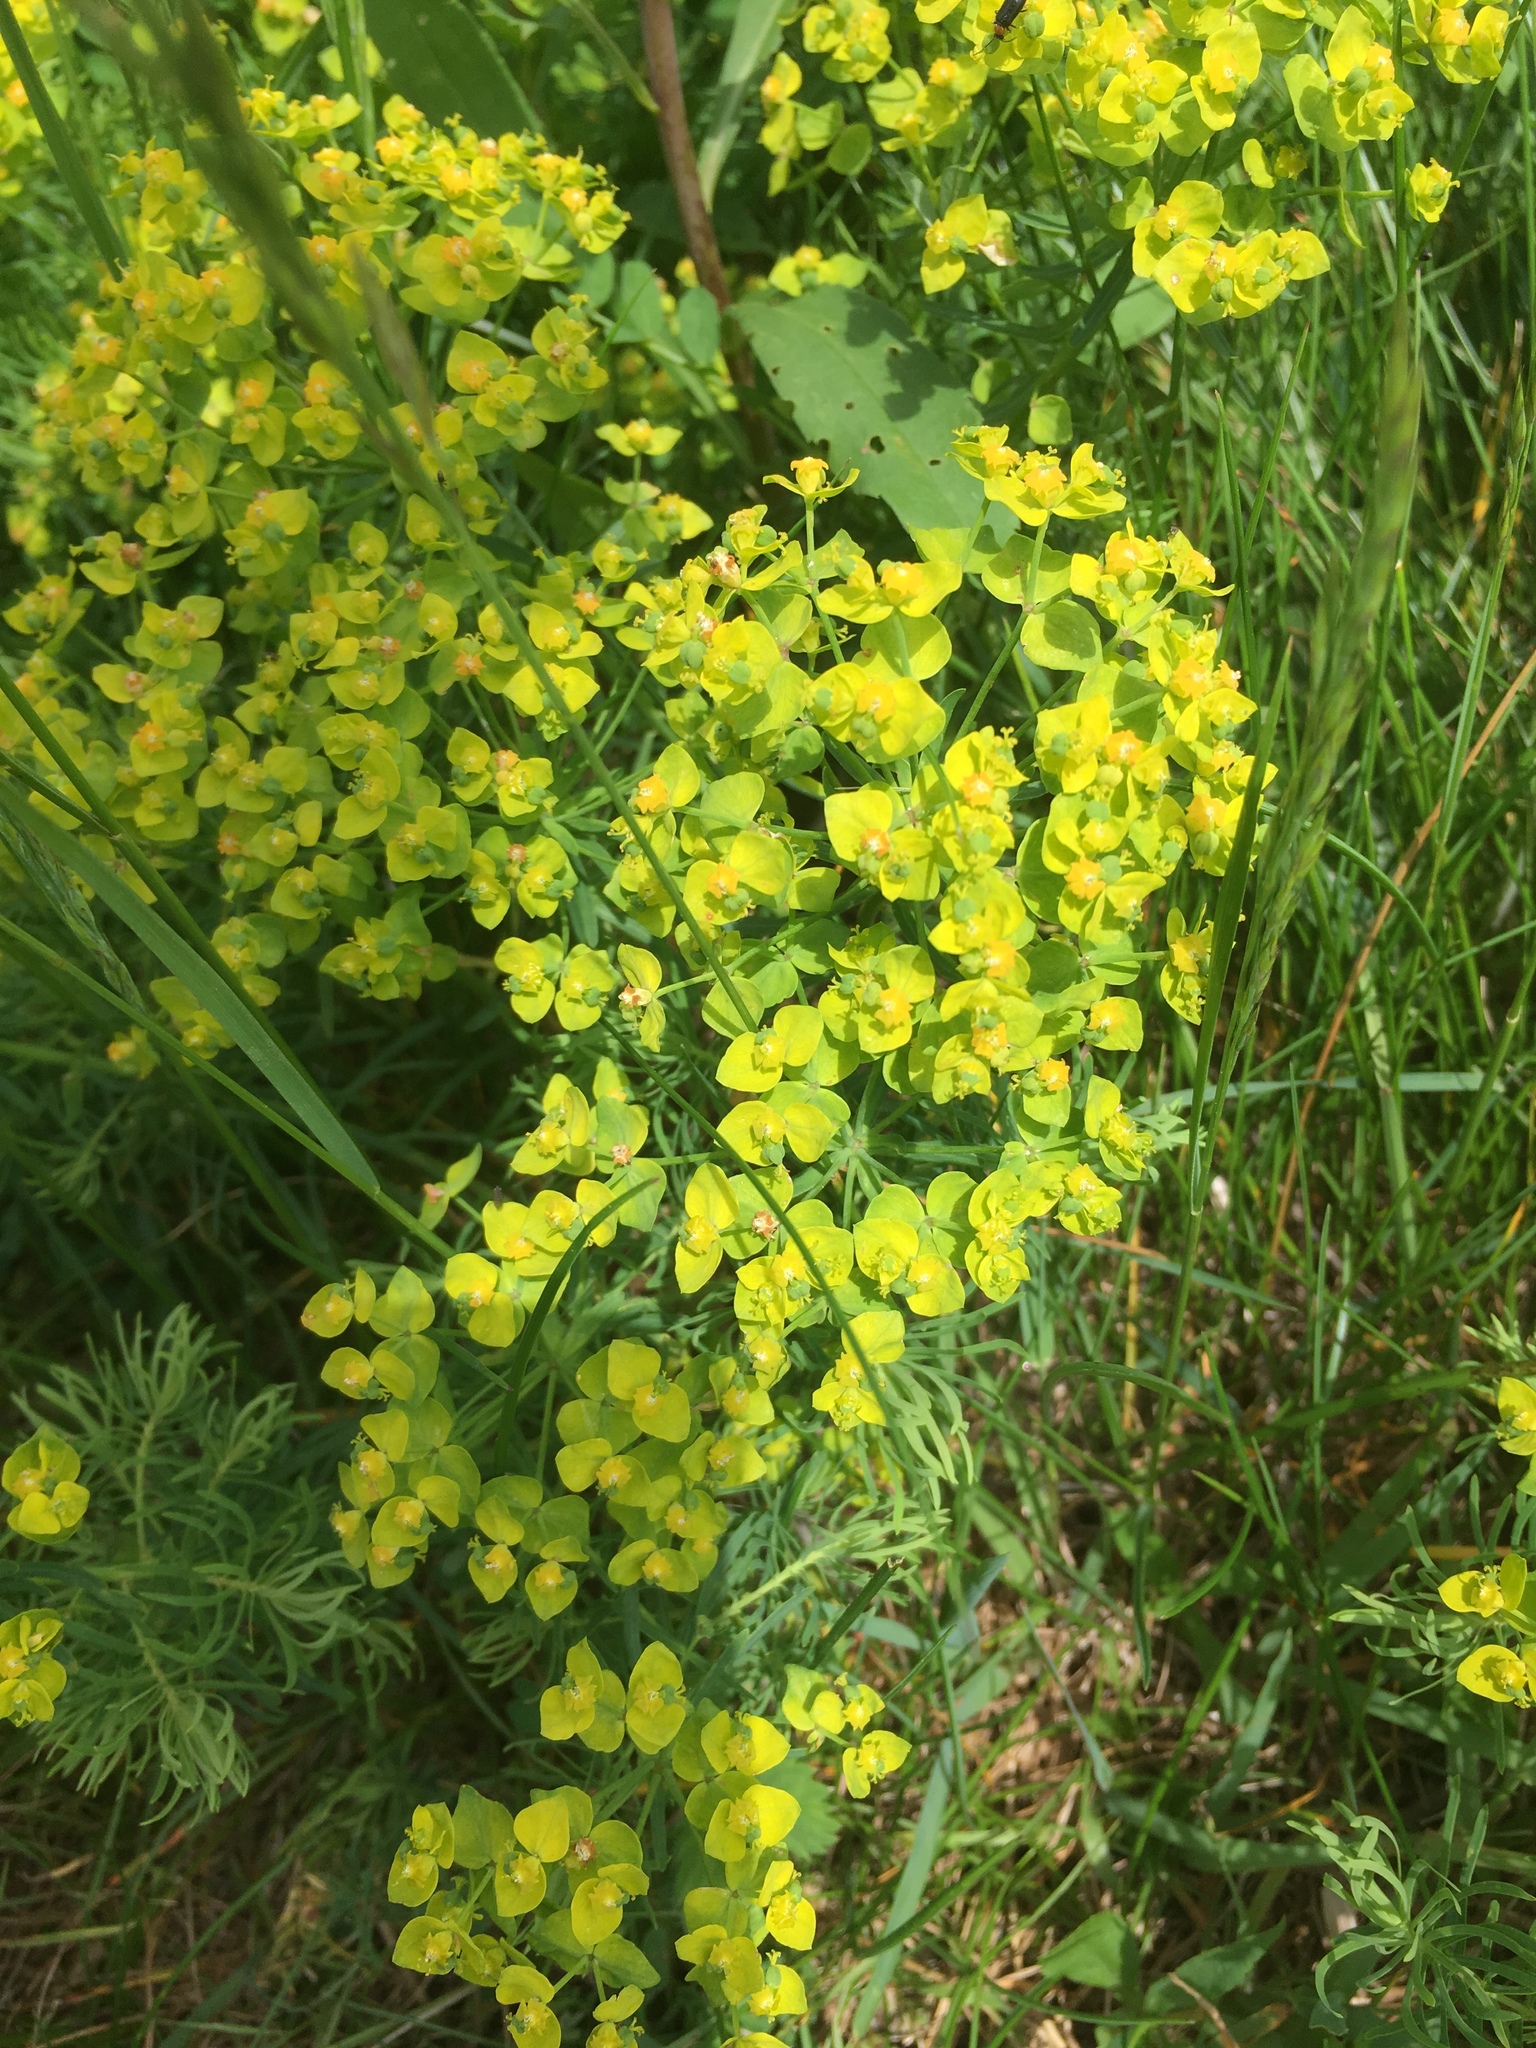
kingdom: Plantae
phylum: Tracheophyta
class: Magnoliopsida
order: Malpighiales
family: Euphorbiaceae
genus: Euphorbia
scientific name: Euphorbia cyparissias
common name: Cypress spurge
